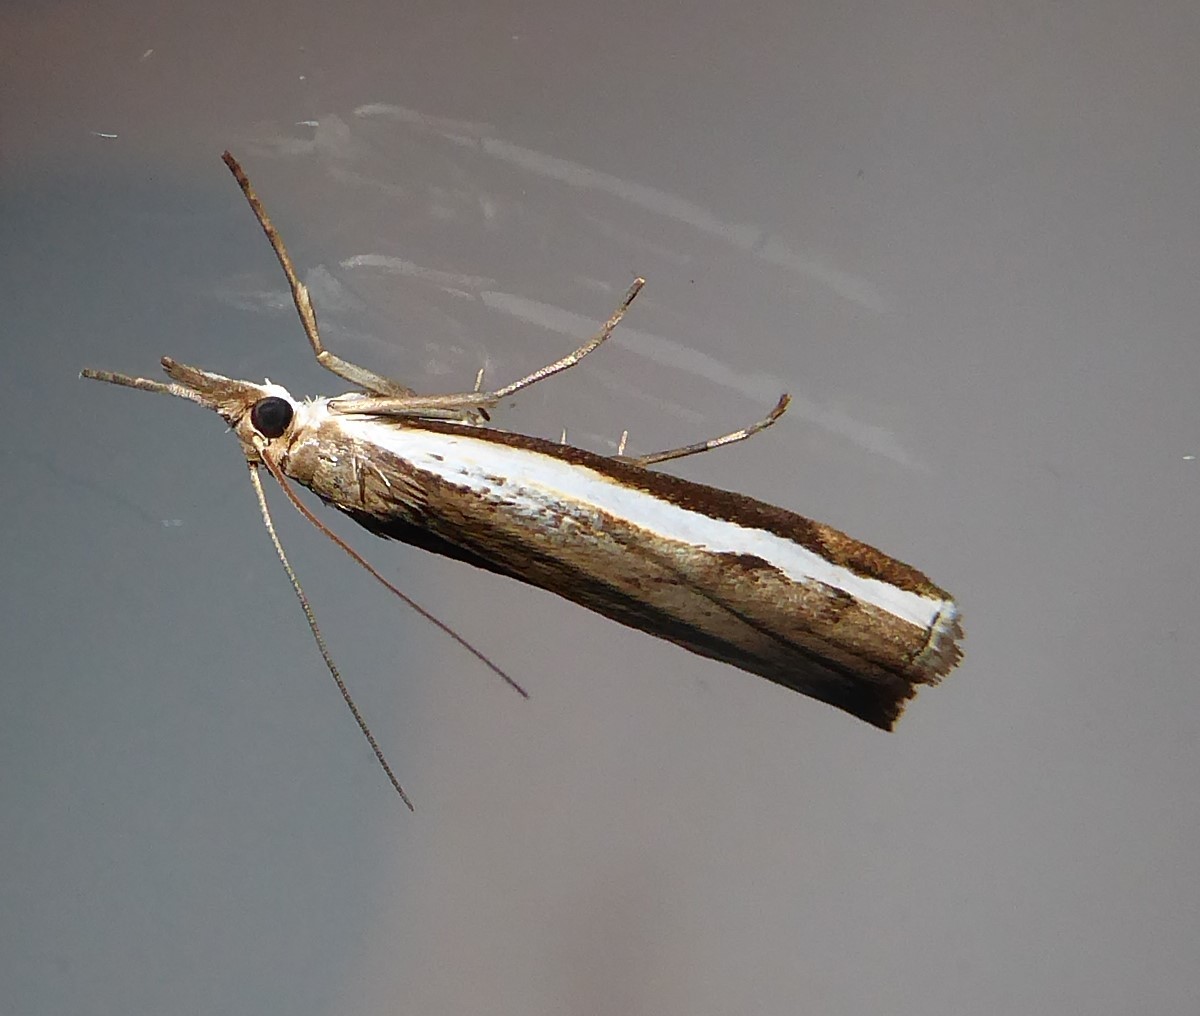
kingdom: Animalia
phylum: Arthropoda
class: Insecta
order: Lepidoptera
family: Crambidae
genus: Orocrambus
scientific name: Orocrambus flexuosellus
